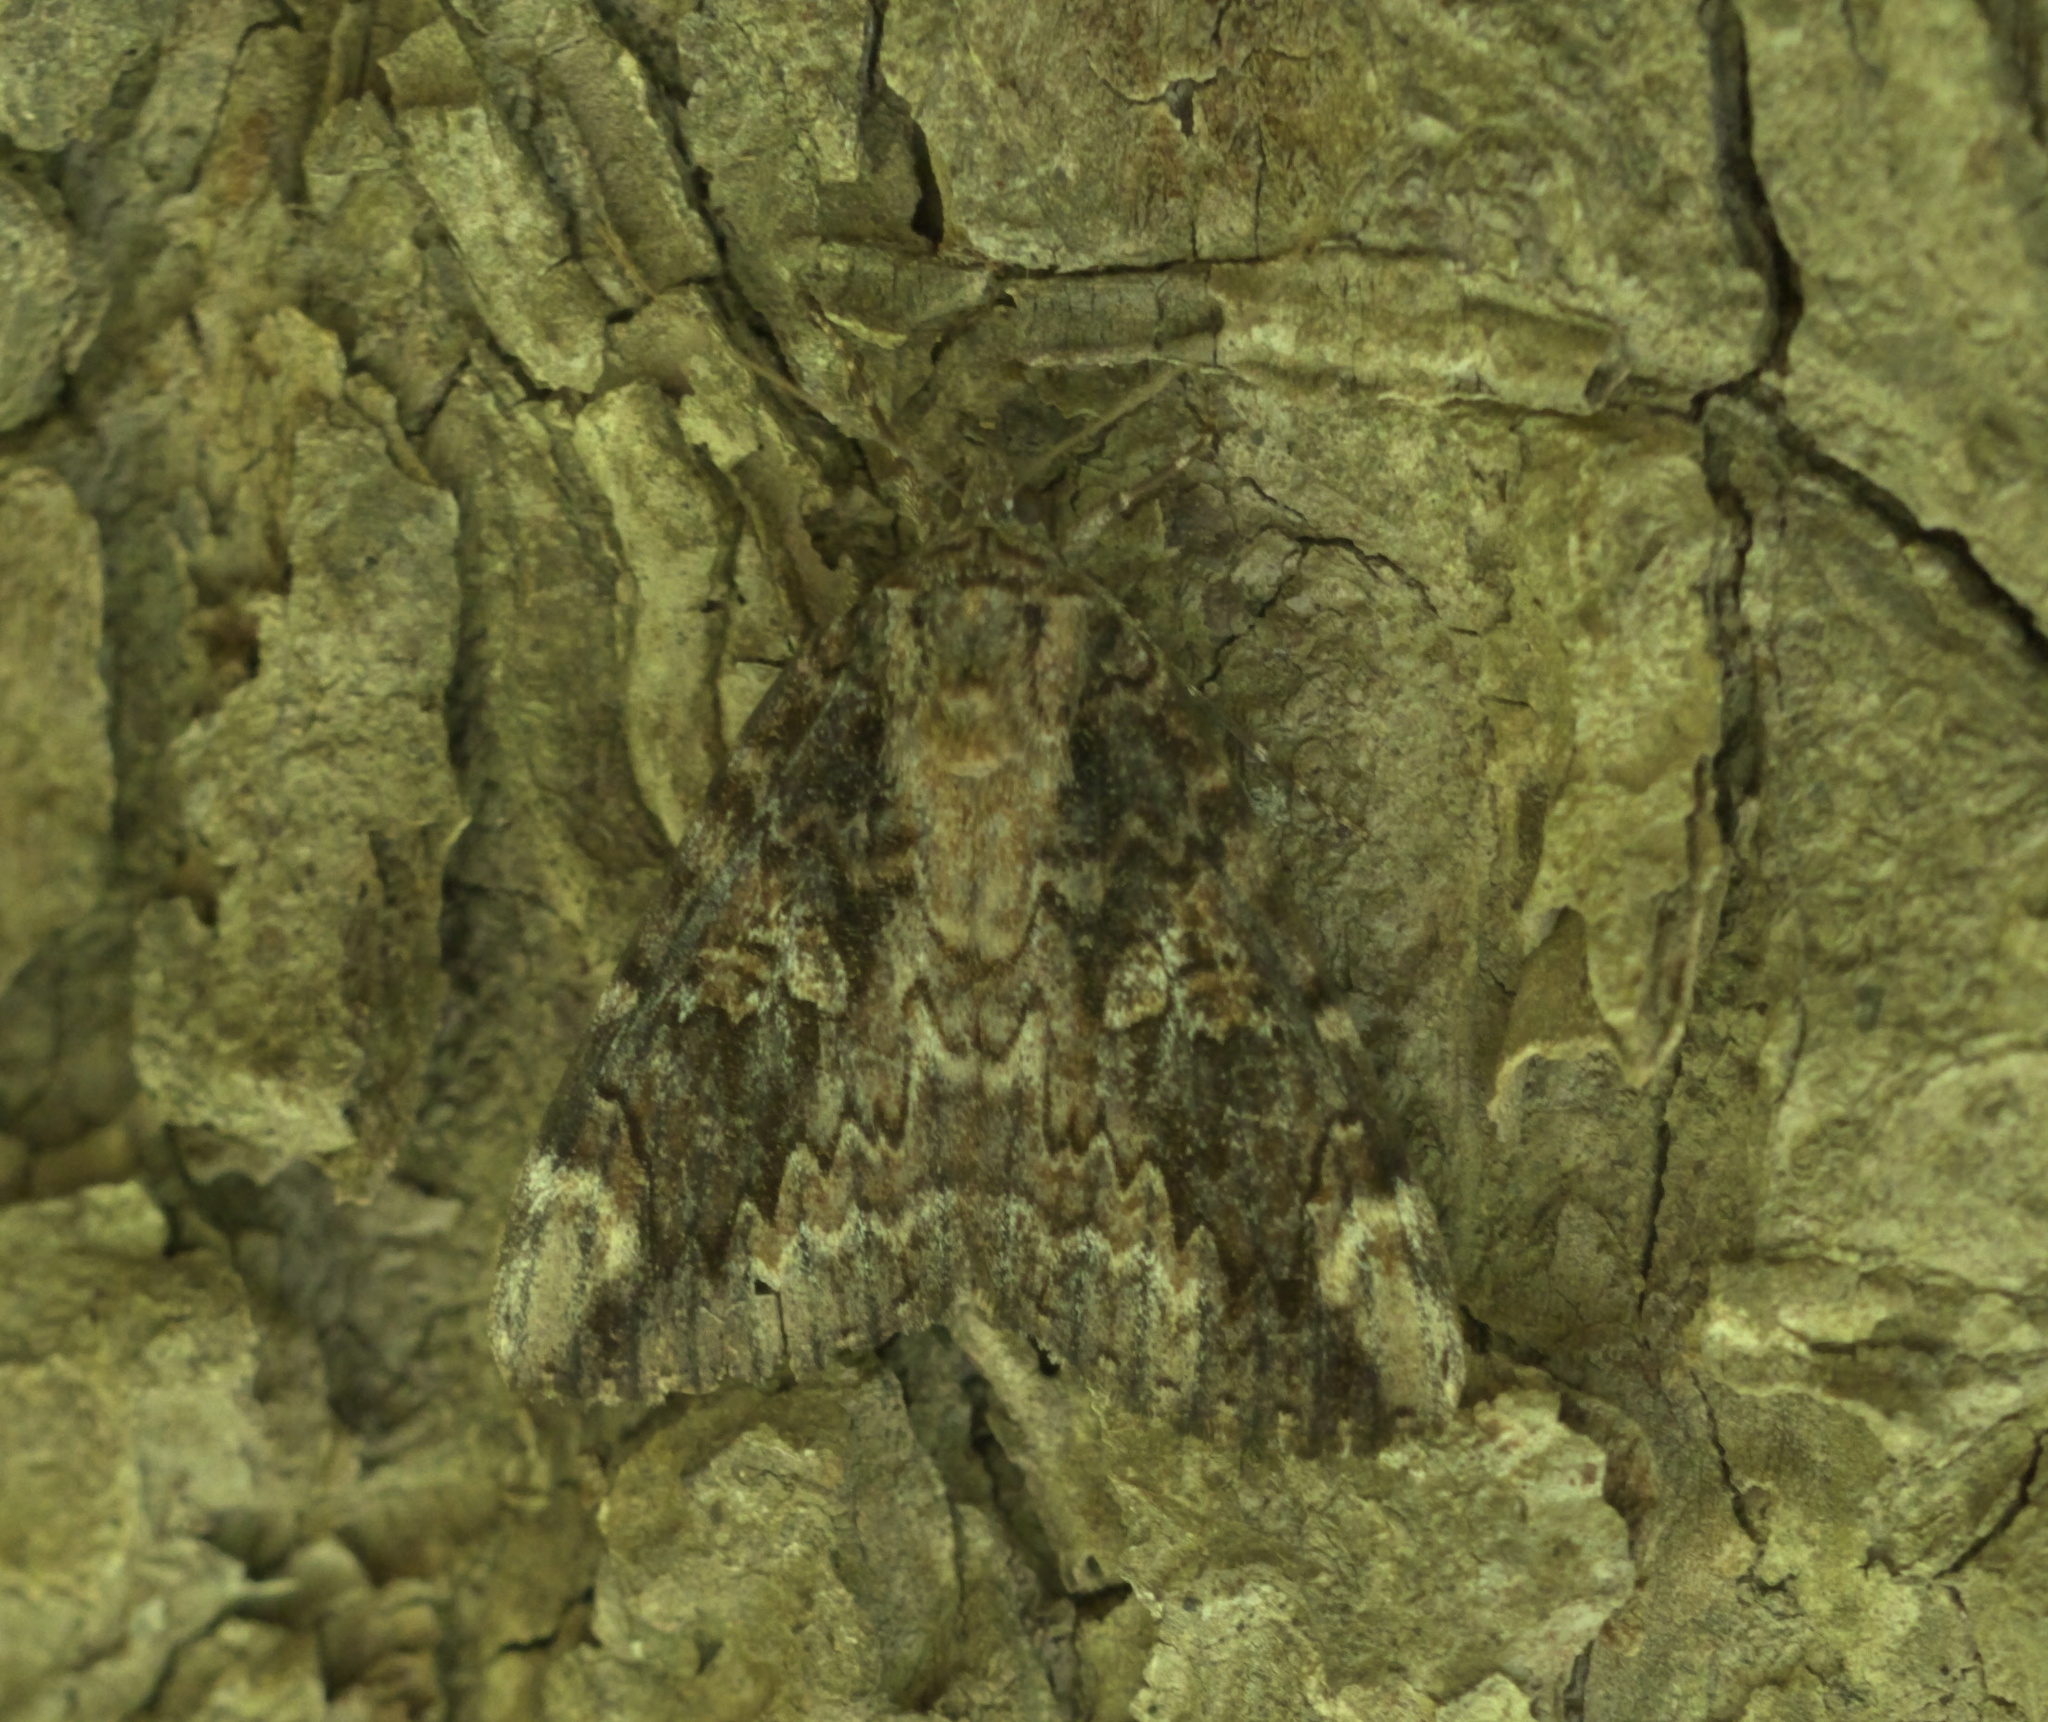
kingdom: Animalia
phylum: Arthropoda
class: Insecta
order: Lepidoptera
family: Erebidae
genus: Catocala
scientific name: Catocala innubens
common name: Betrothed underwing
